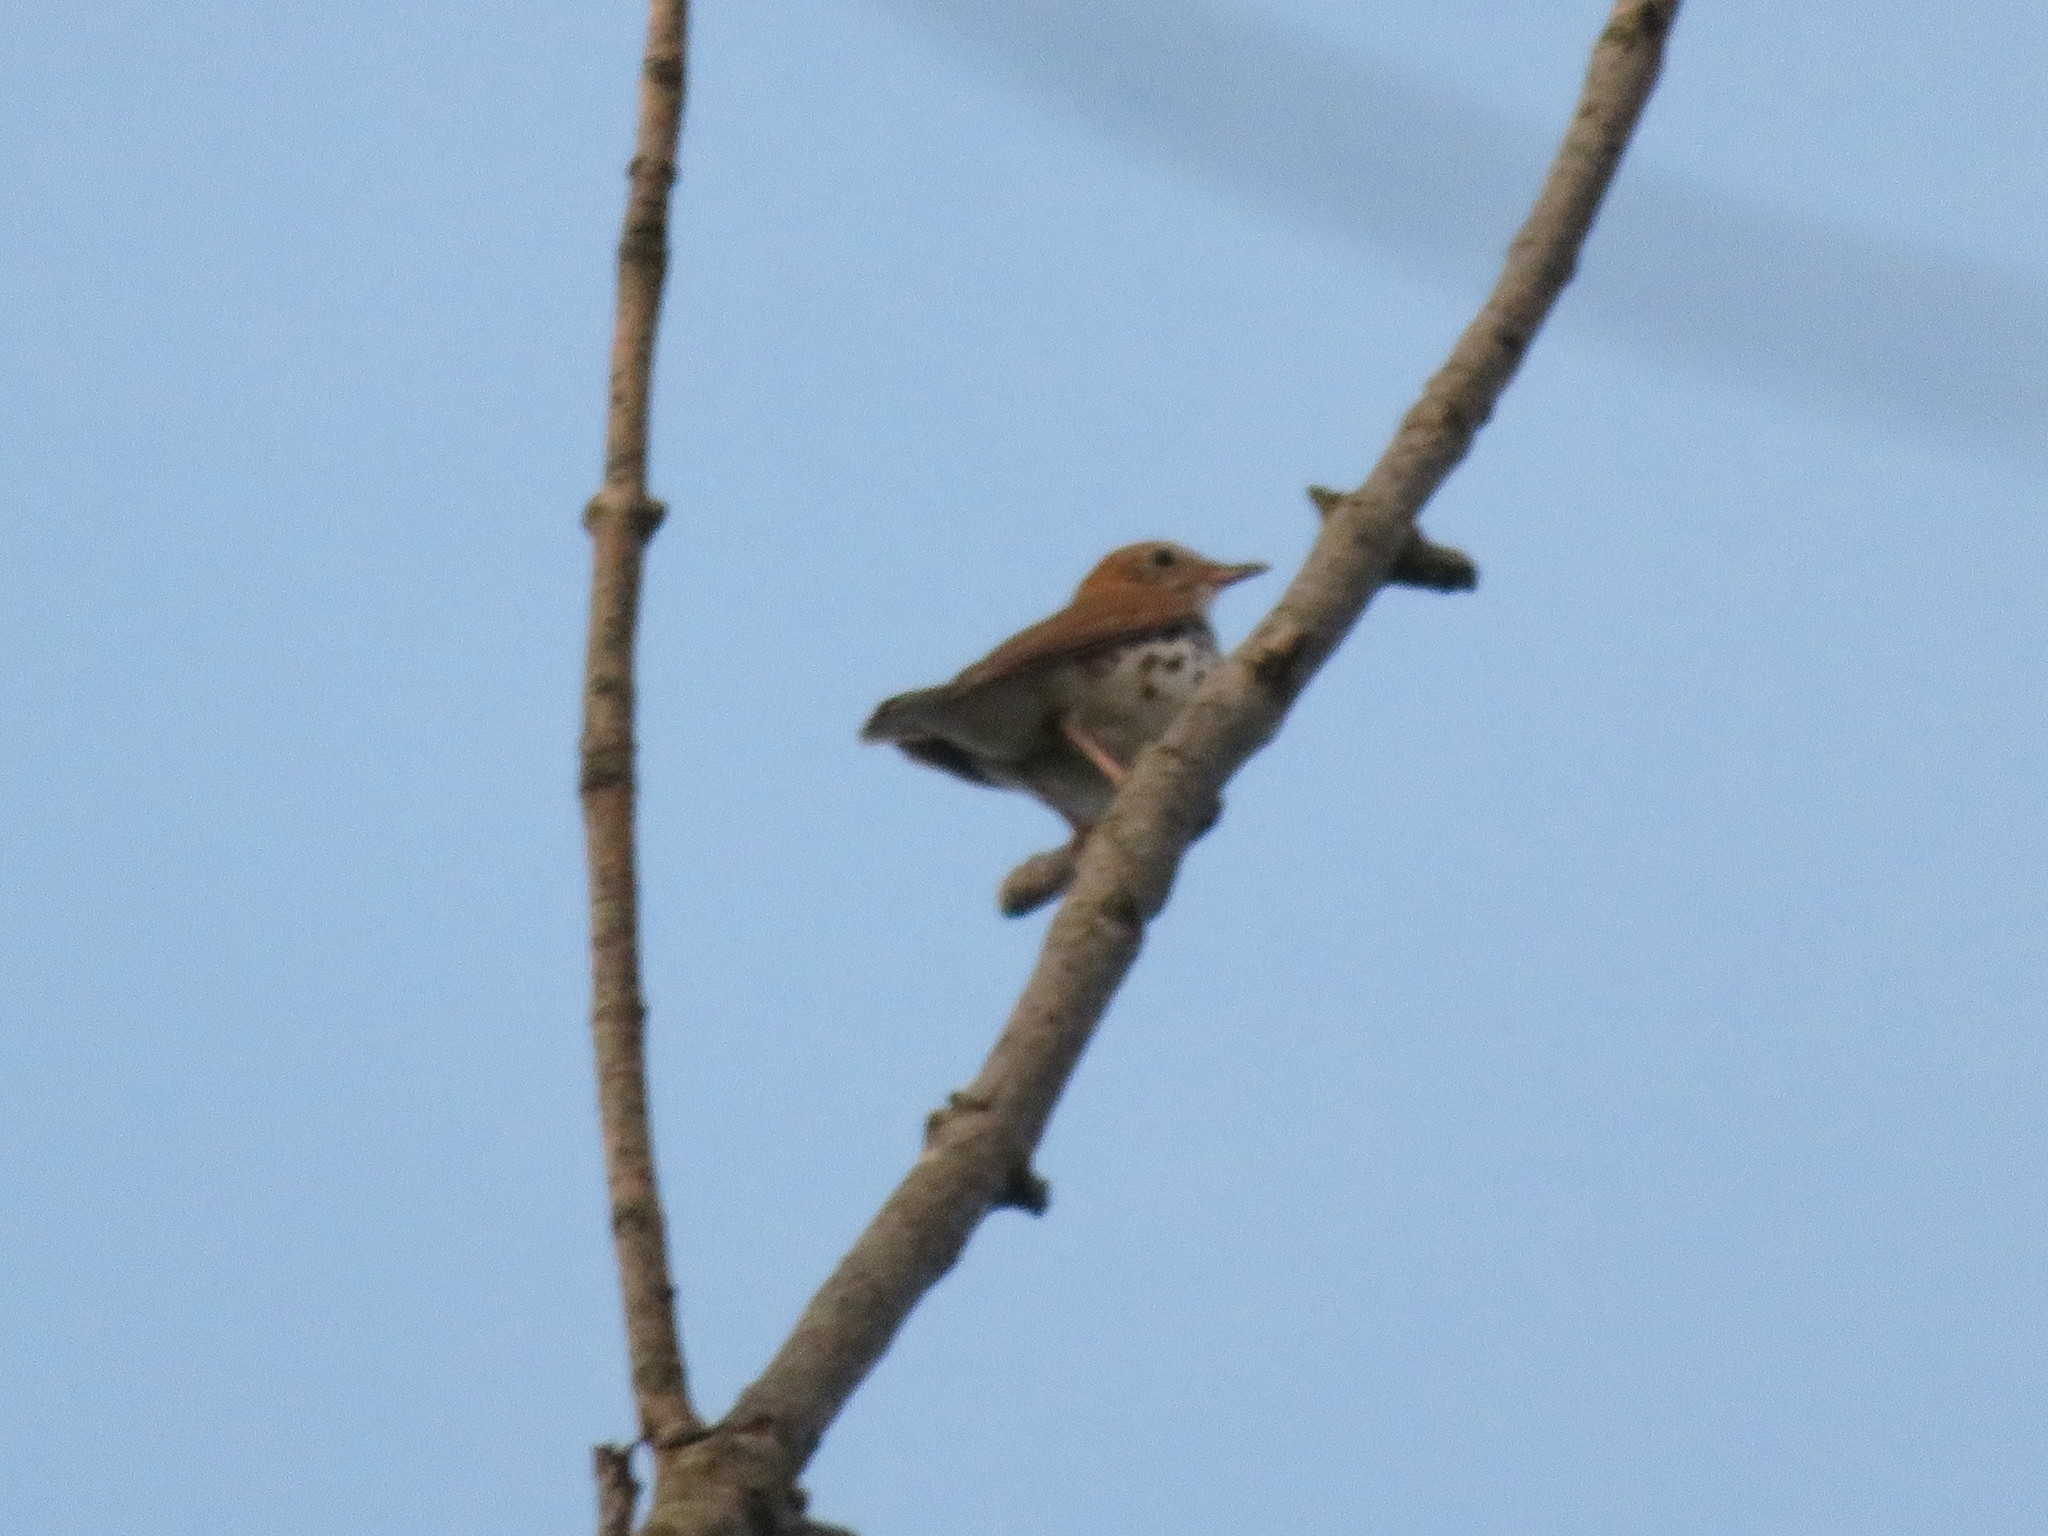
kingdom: Animalia
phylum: Chordata
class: Aves
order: Passeriformes
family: Turdidae
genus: Hylocichla
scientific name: Hylocichla mustelina
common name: Wood thrush
